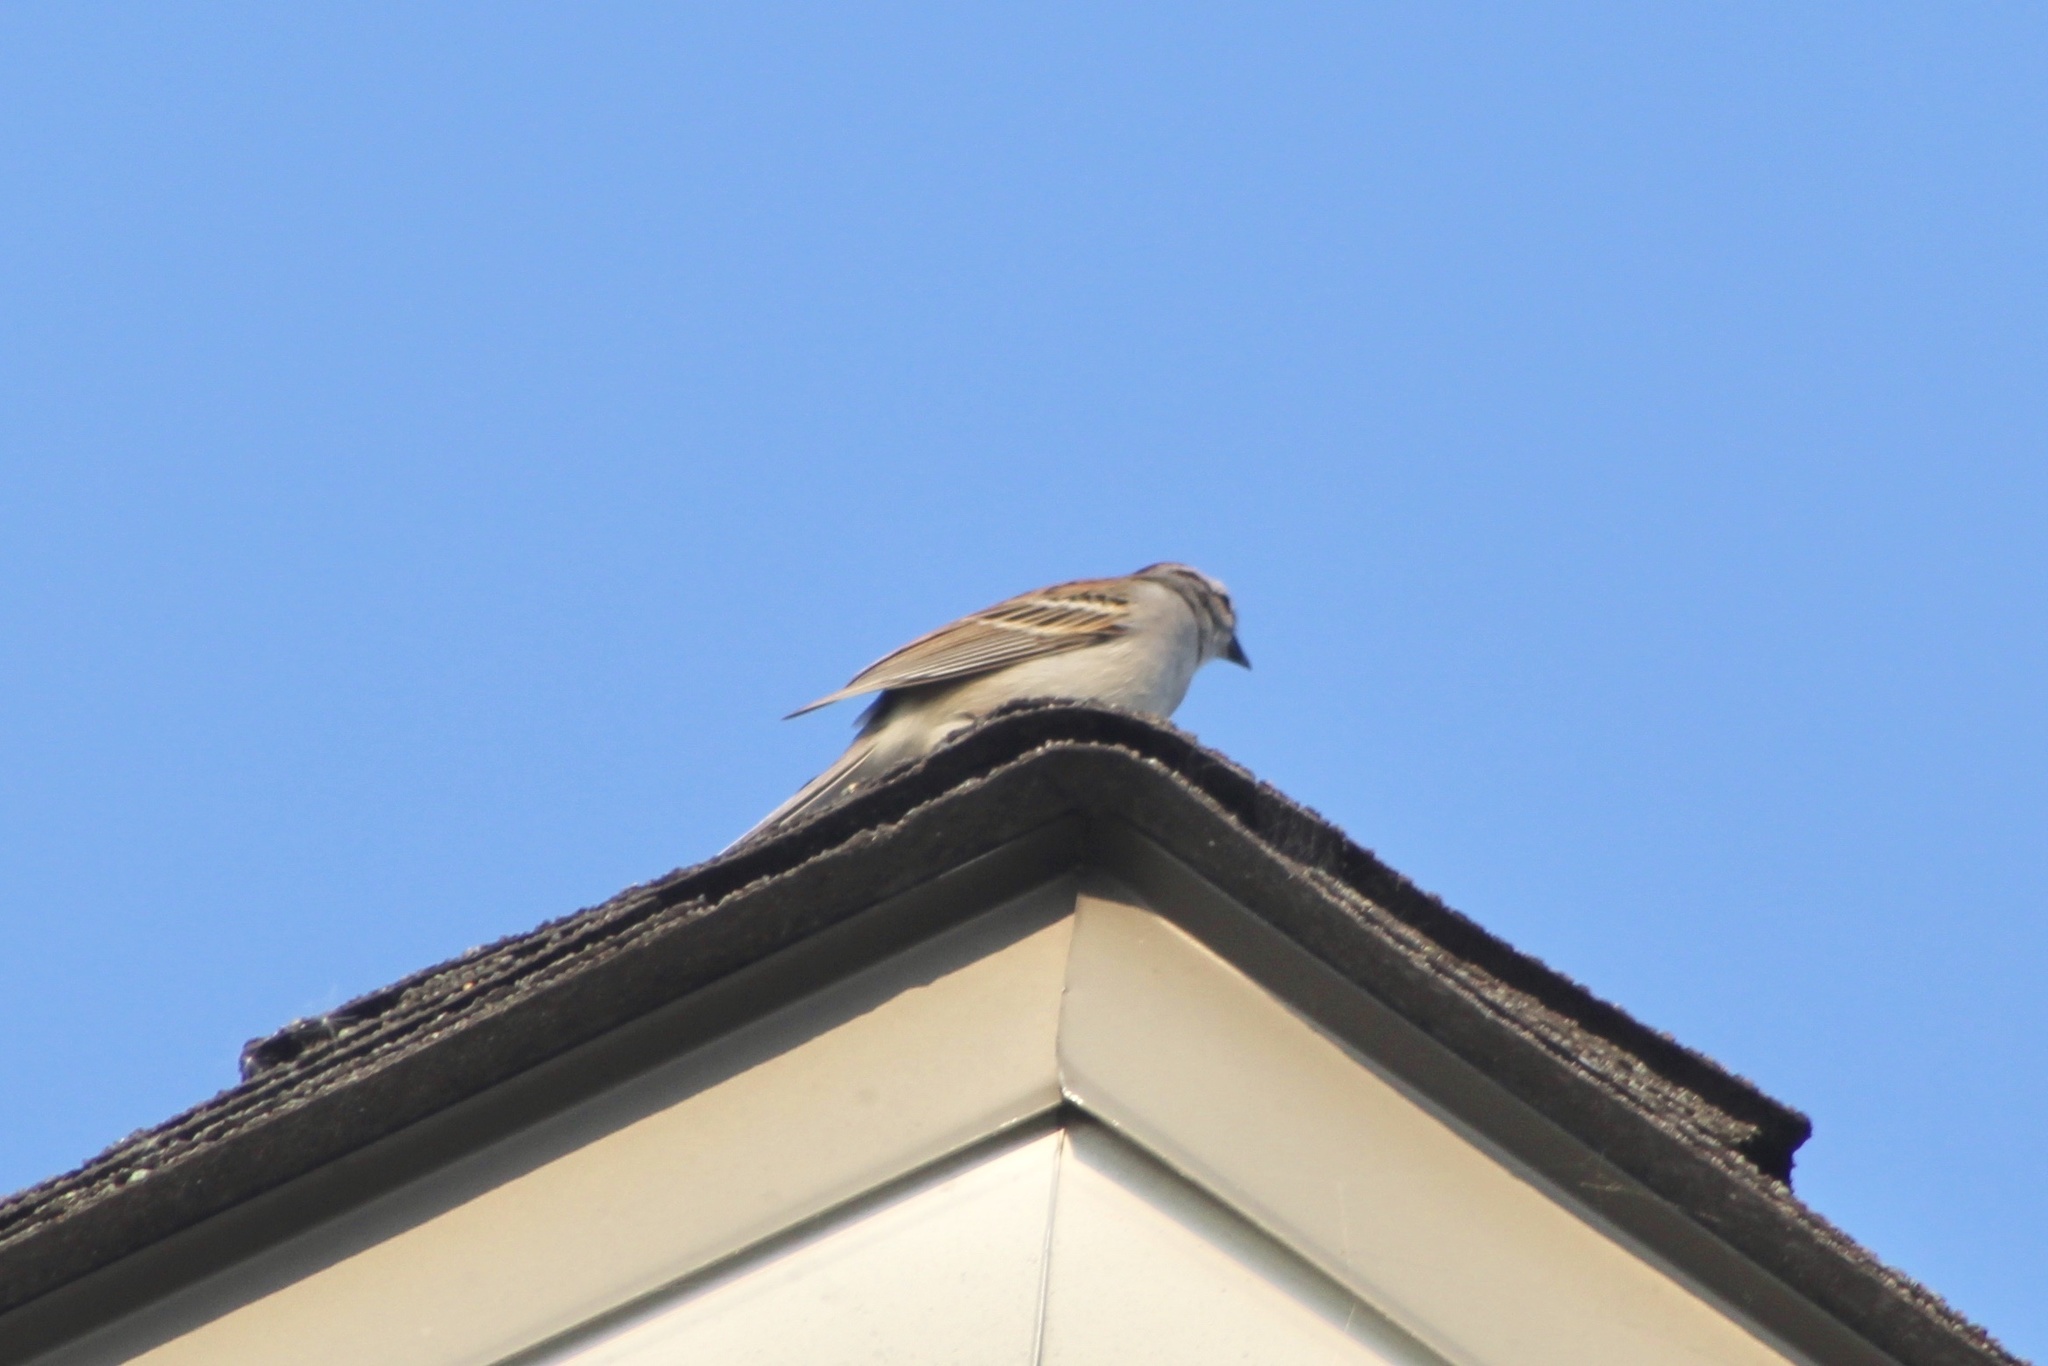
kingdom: Animalia
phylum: Chordata
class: Aves
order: Passeriformes
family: Passerellidae
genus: Spizella
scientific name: Spizella passerina
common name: Chipping sparrow
